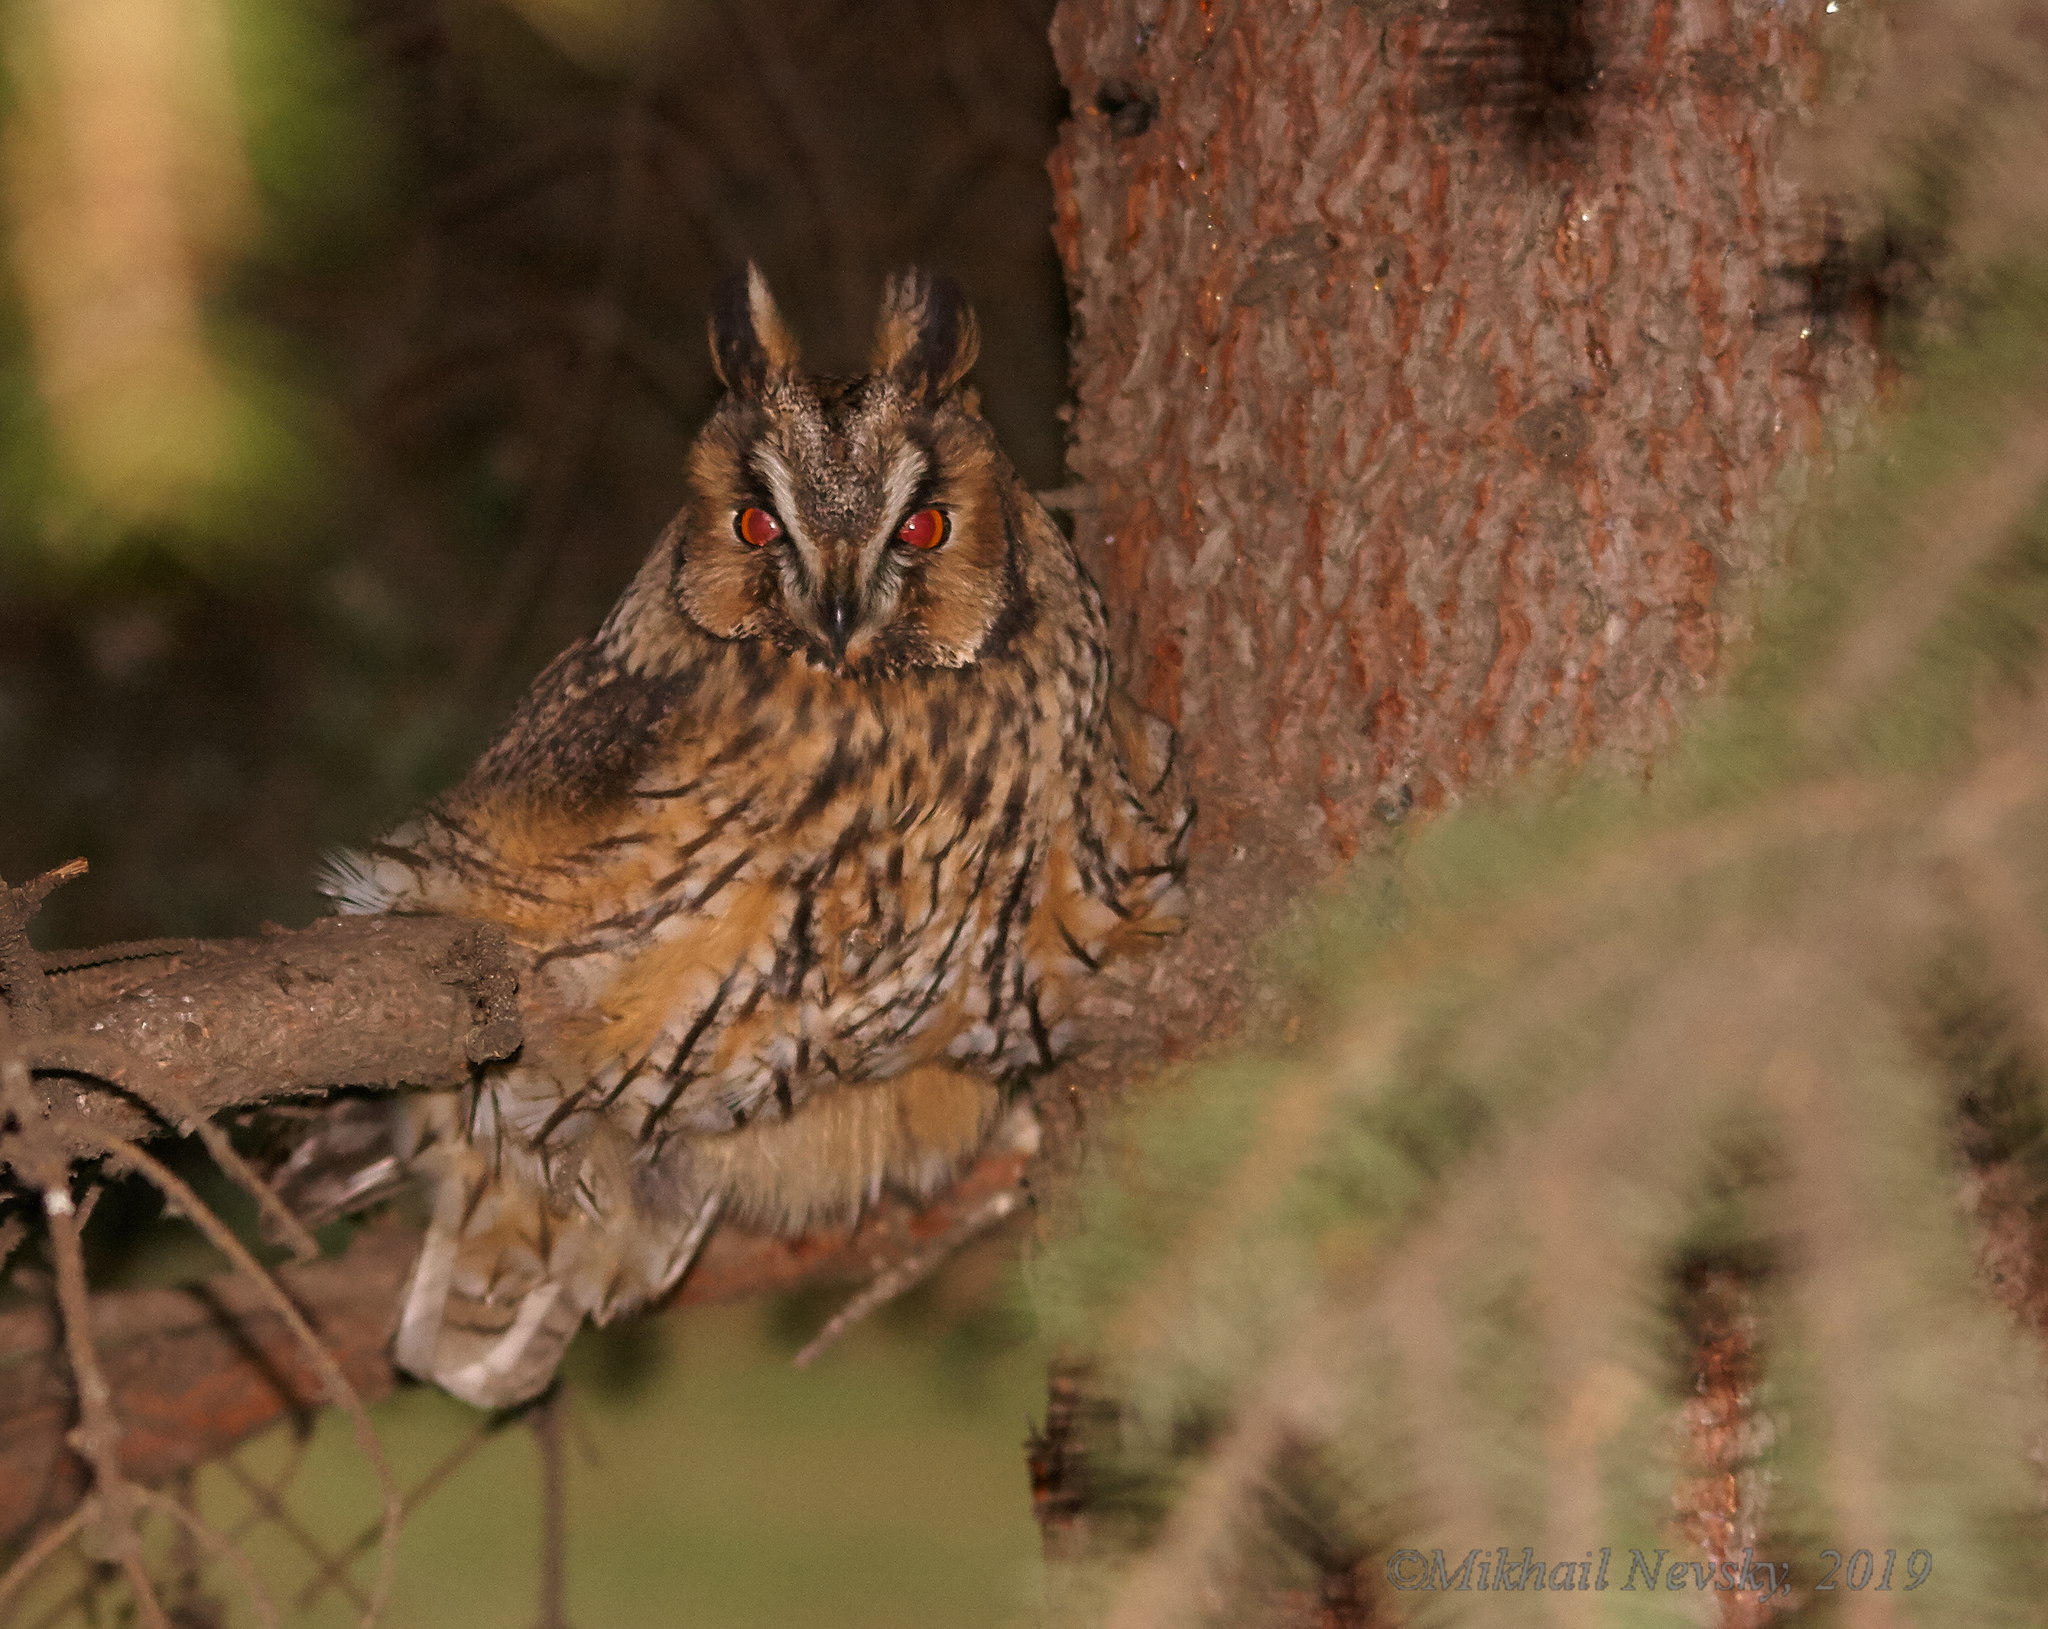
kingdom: Animalia
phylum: Chordata
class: Aves
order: Strigiformes
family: Strigidae
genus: Asio
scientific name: Asio otus
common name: Long-eared owl
